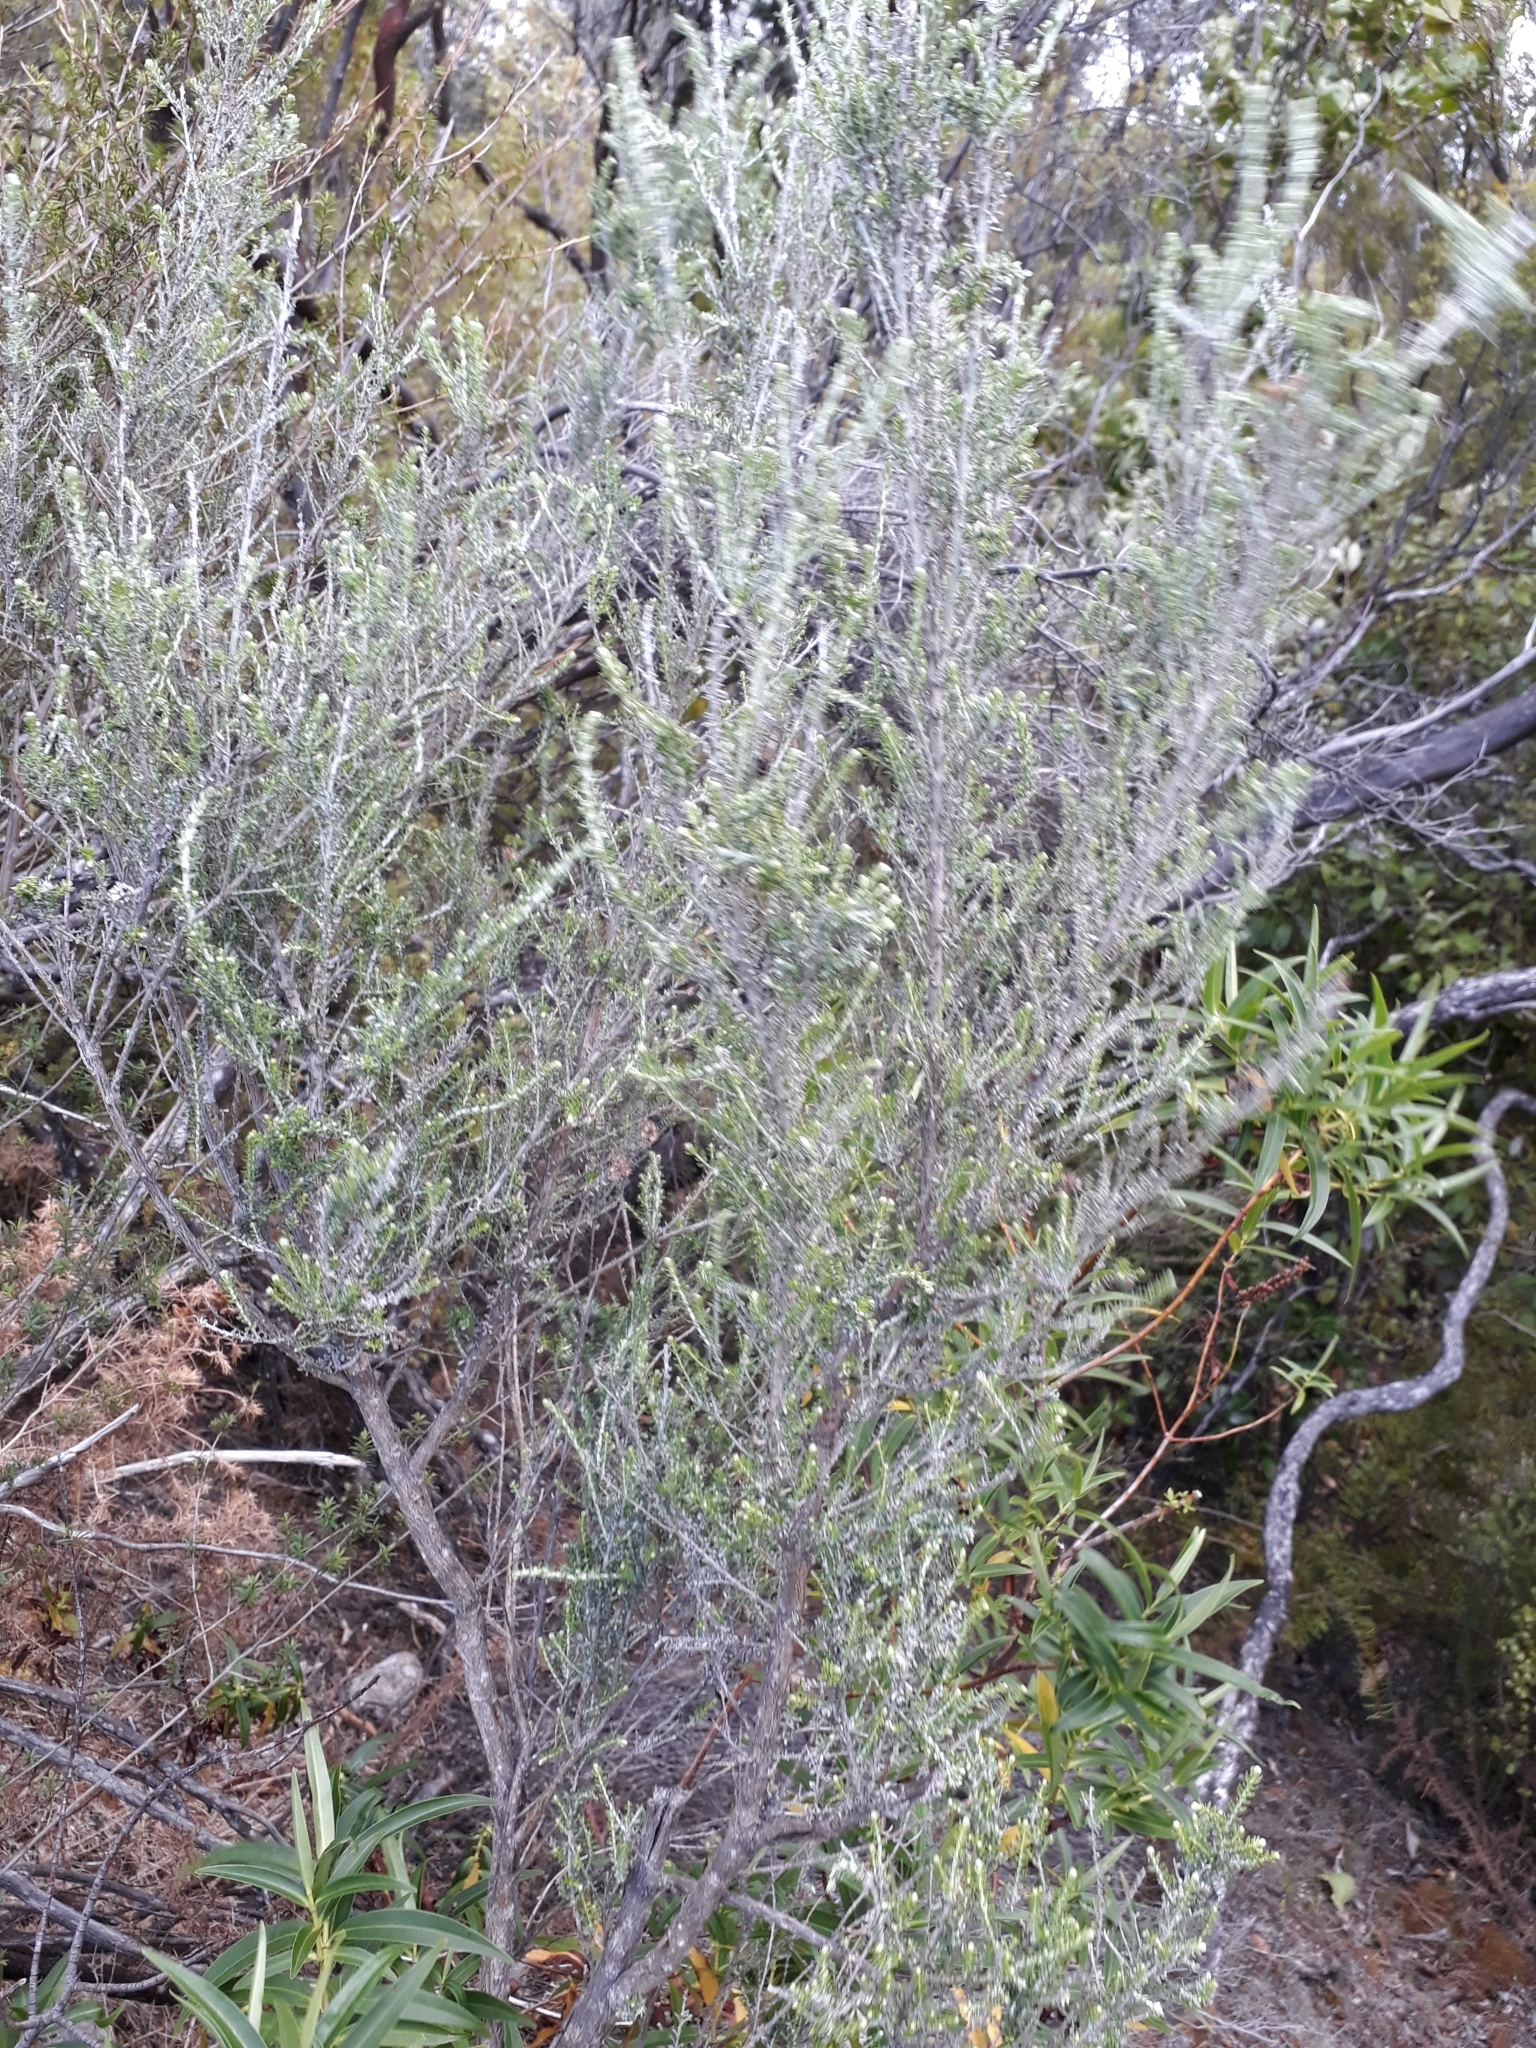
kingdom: Plantae
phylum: Tracheophyta
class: Magnoliopsida
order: Asterales
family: Asteraceae
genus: Ozothamnus
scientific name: Ozothamnus leptophyllus
